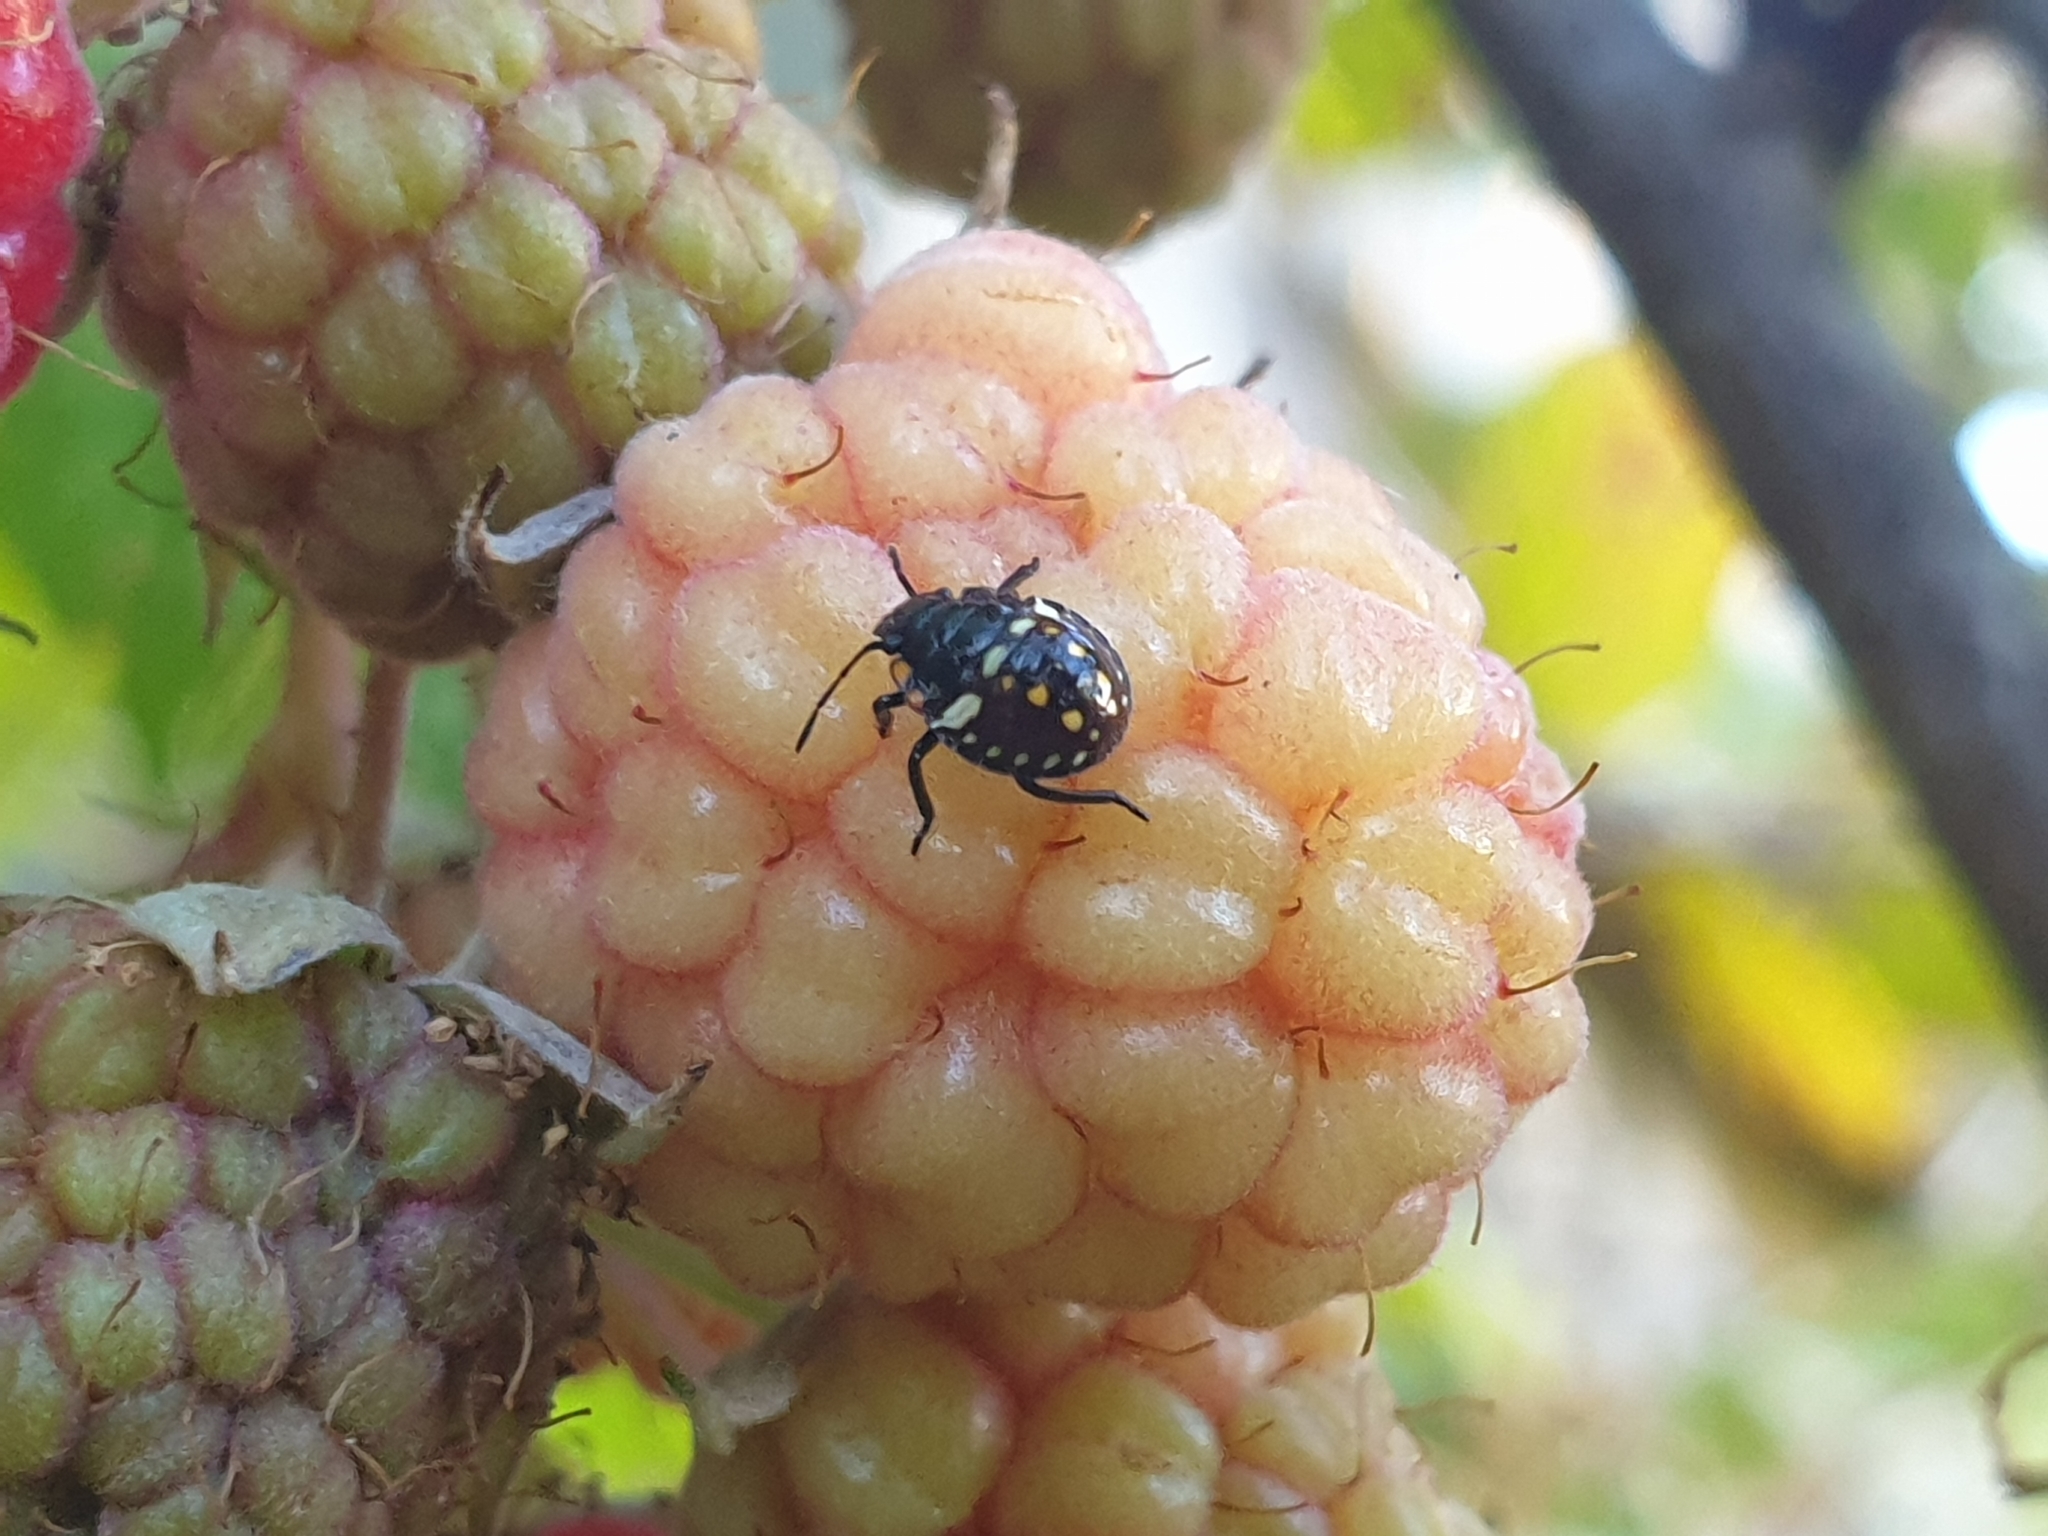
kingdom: Animalia
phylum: Arthropoda
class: Insecta
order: Hemiptera
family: Pentatomidae
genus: Nezara
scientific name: Nezara viridula
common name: Southern green stink bug
